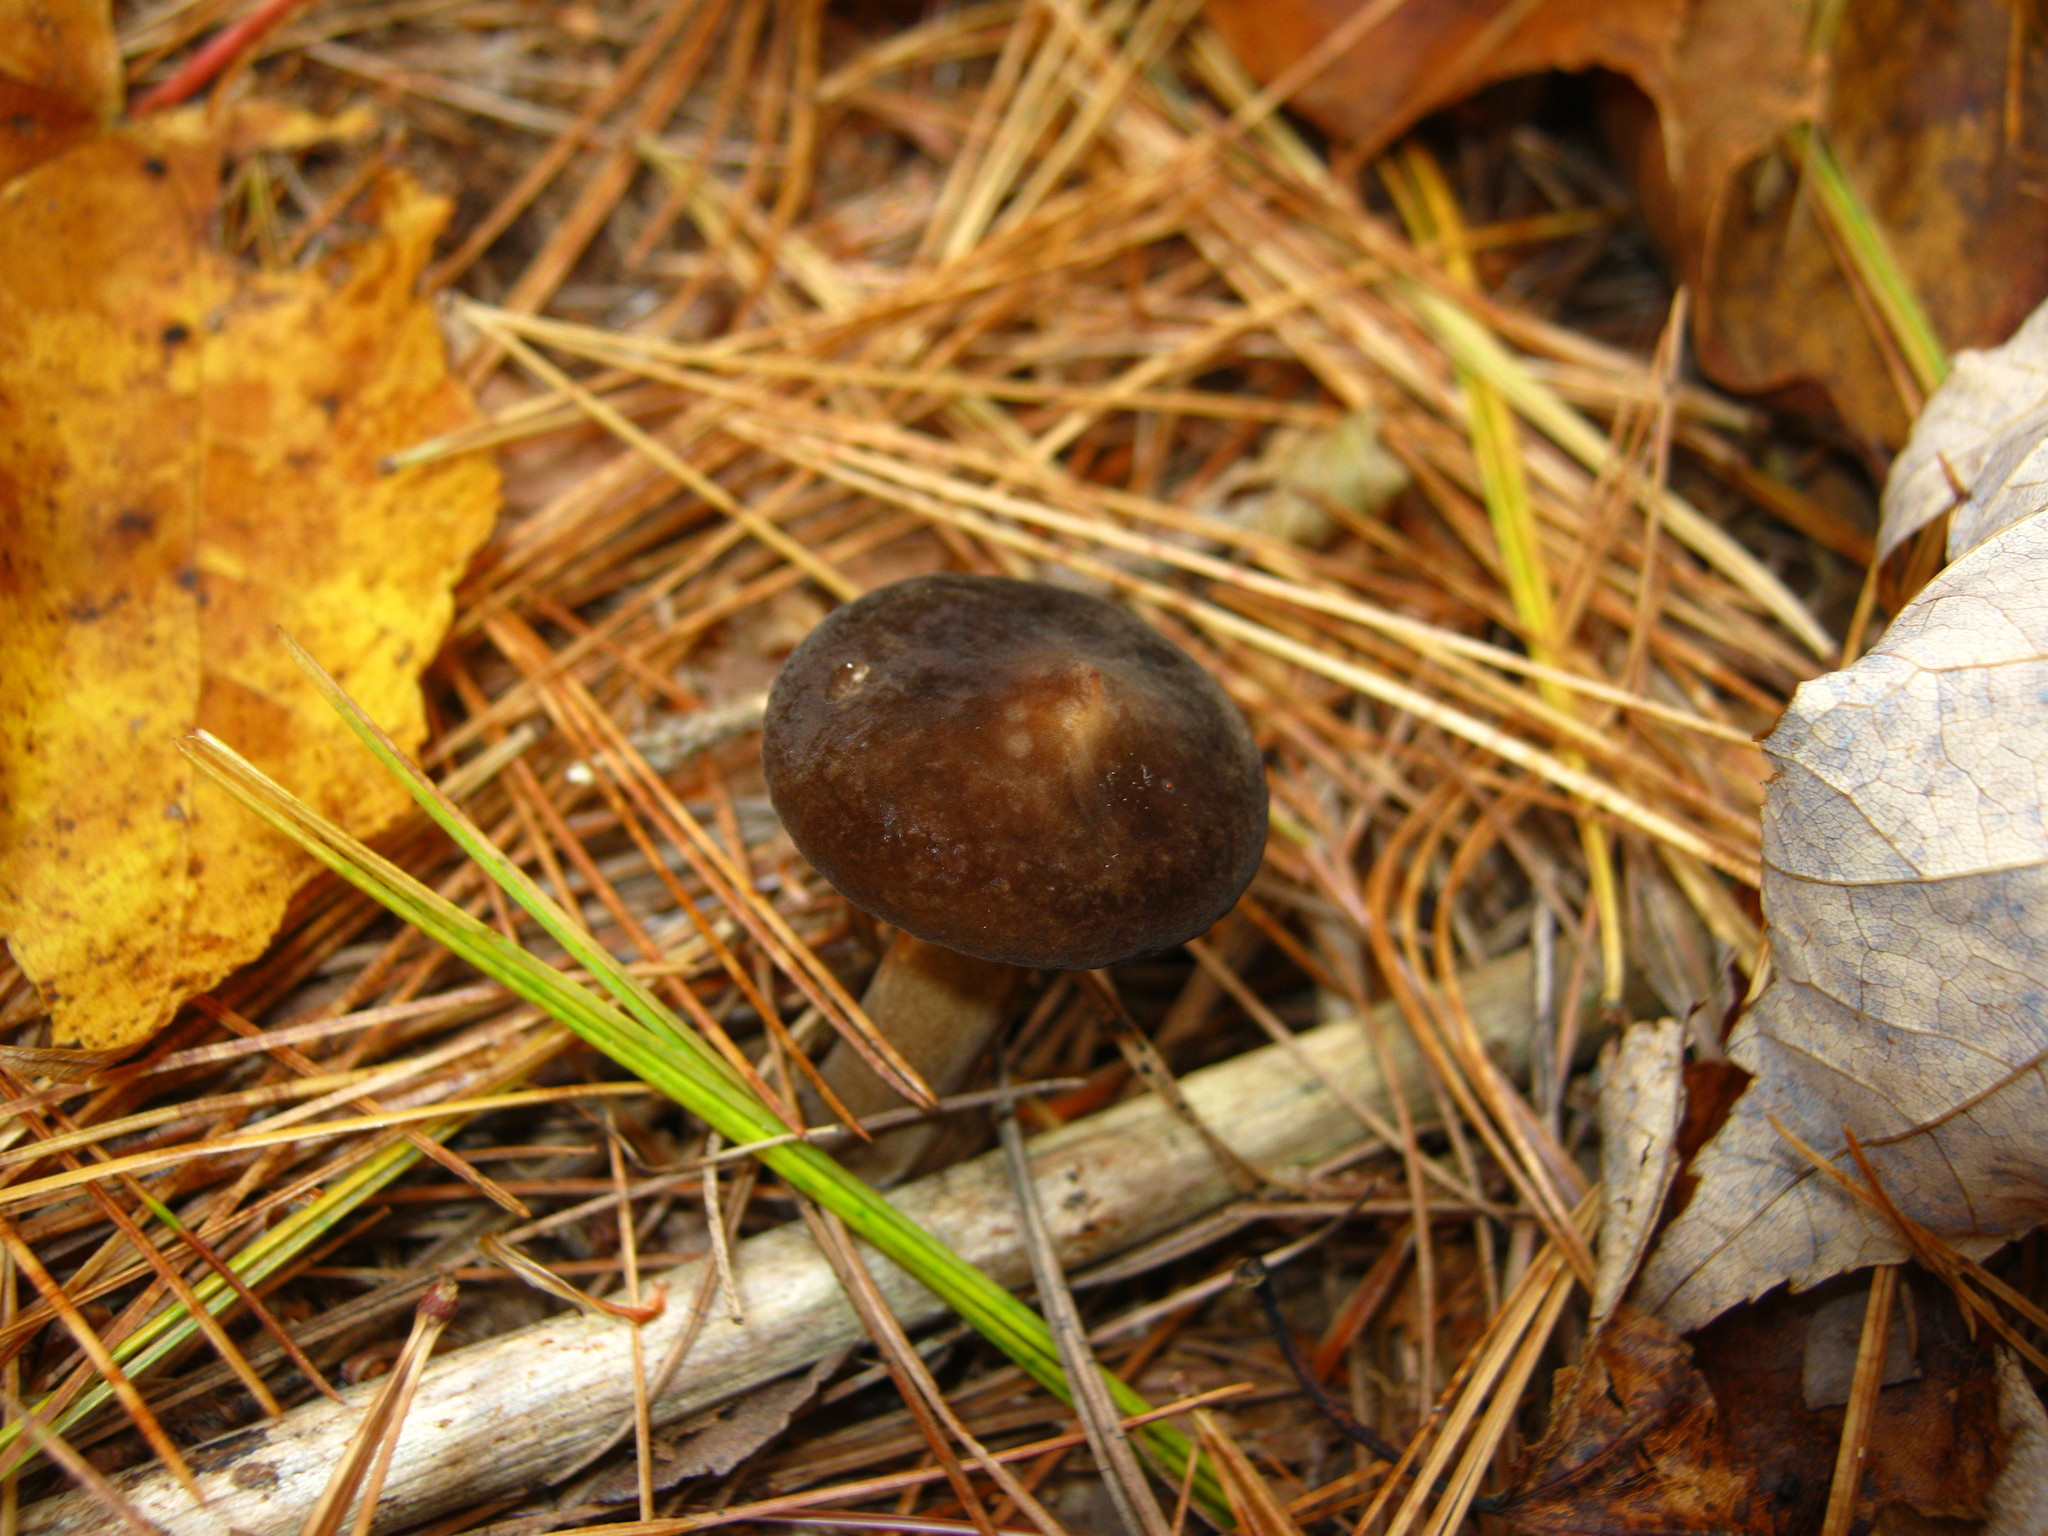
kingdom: Fungi
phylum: Basidiomycota
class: Agaricomycetes
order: Russulales
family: Russulaceae
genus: Lactarius
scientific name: Lactarius lignyotus
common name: Velvet milkcap
